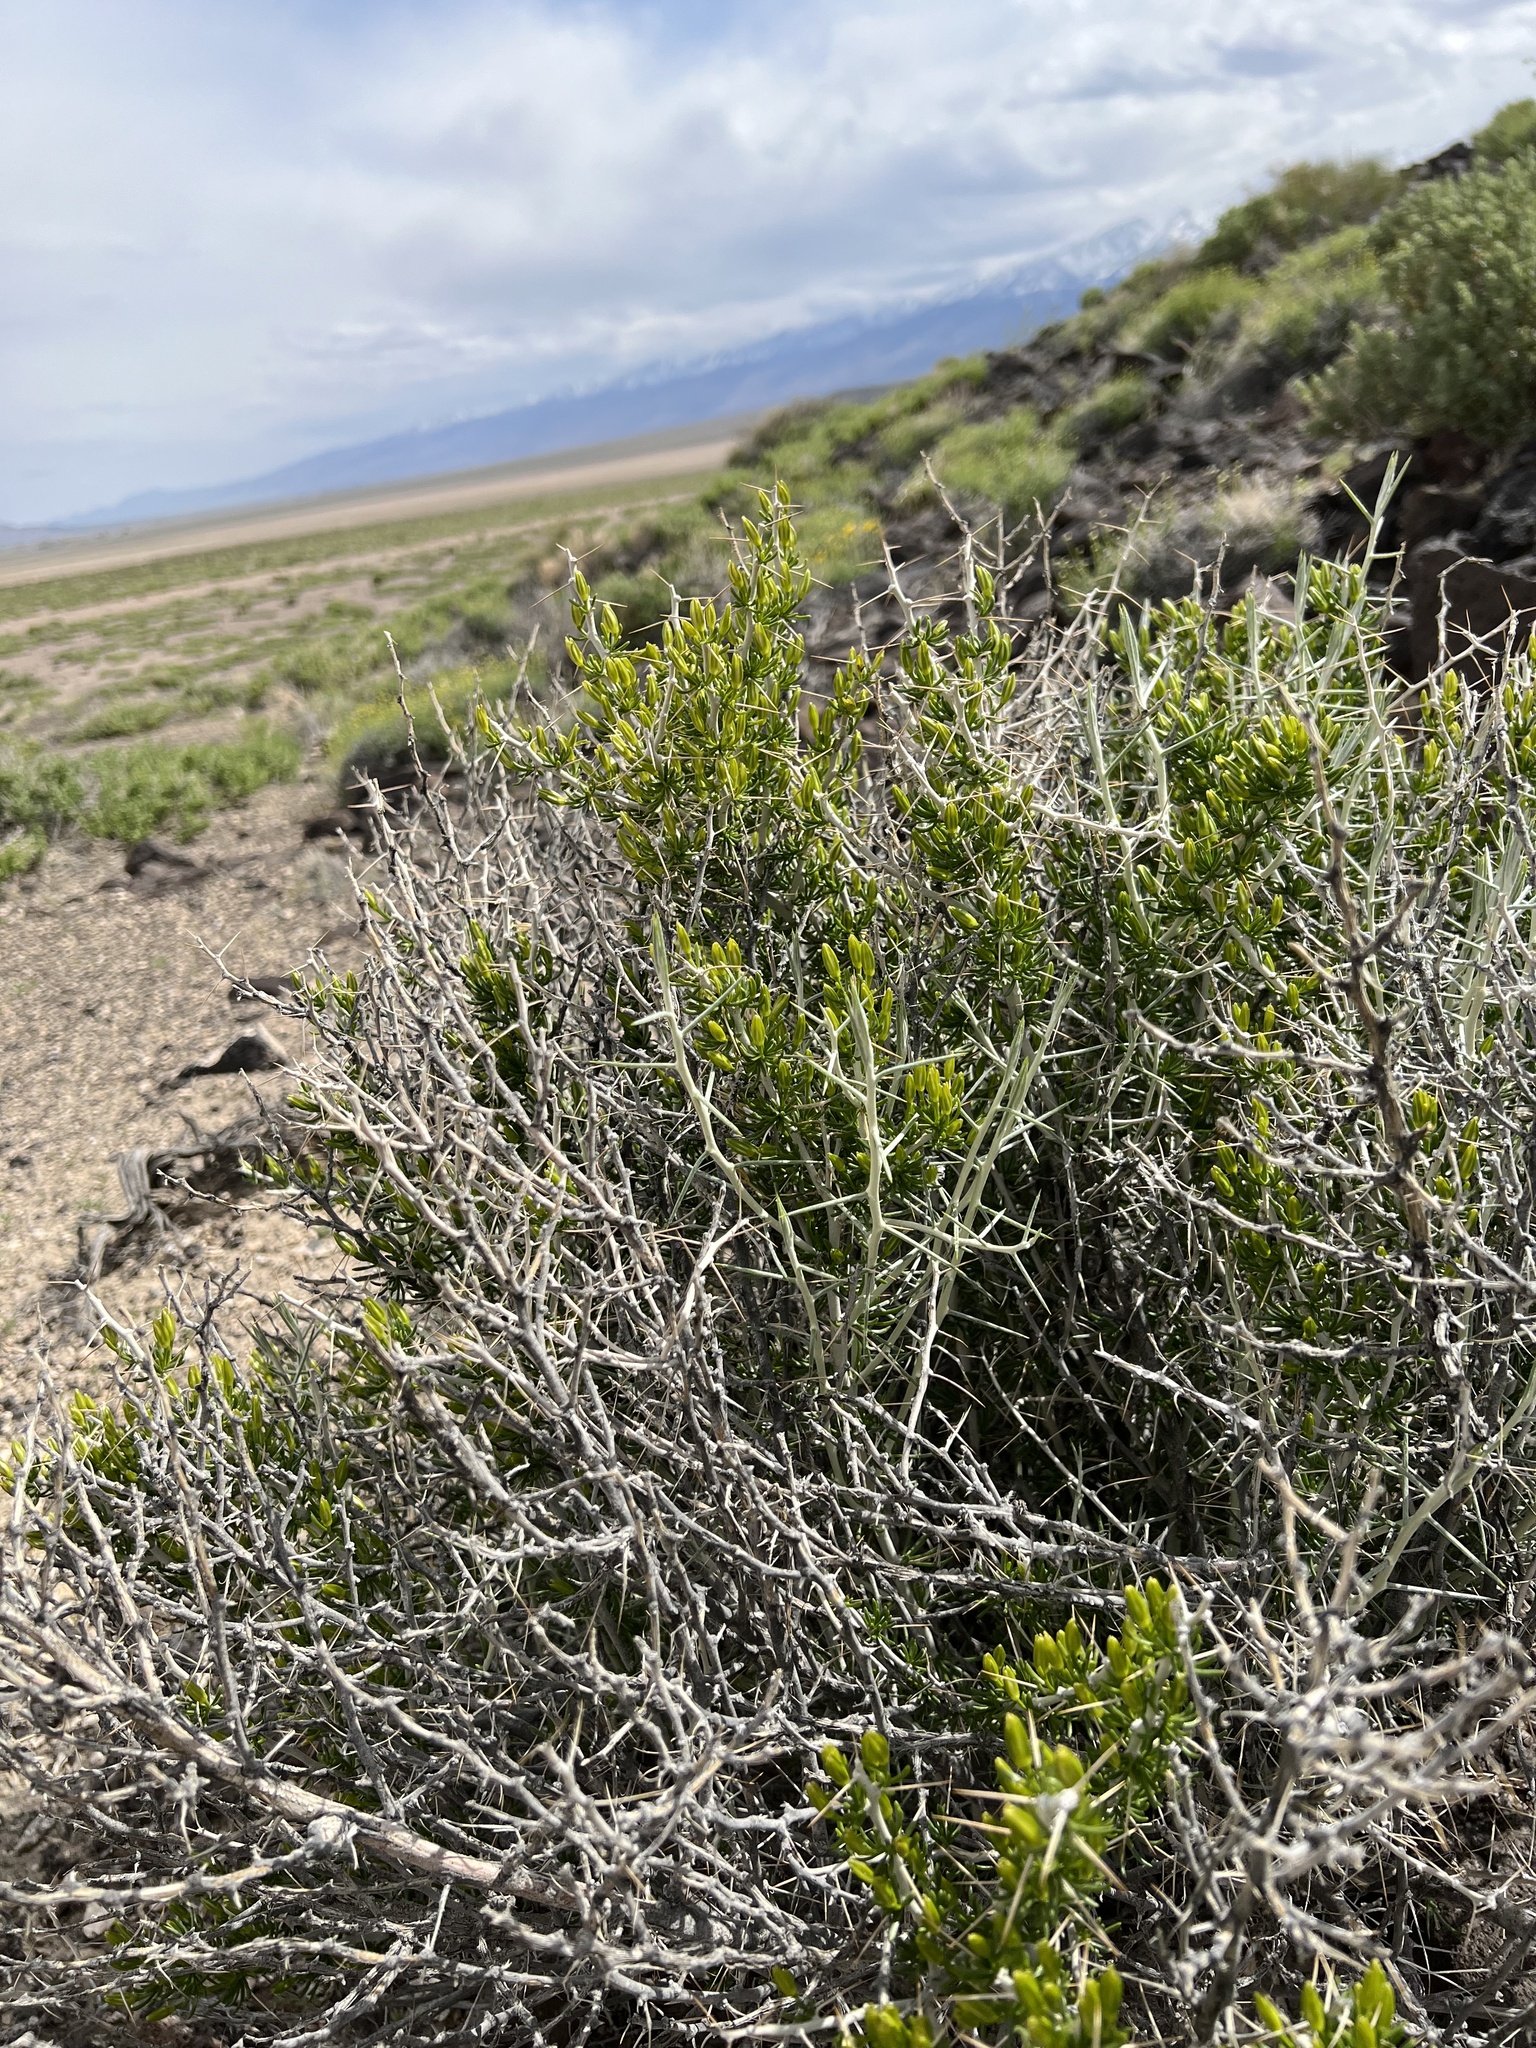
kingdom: Plantae
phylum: Tracheophyta
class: Magnoliopsida
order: Asterales
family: Asteraceae
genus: Tetradymia
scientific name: Tetradymia axillaris
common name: Long-spine horsebrush
